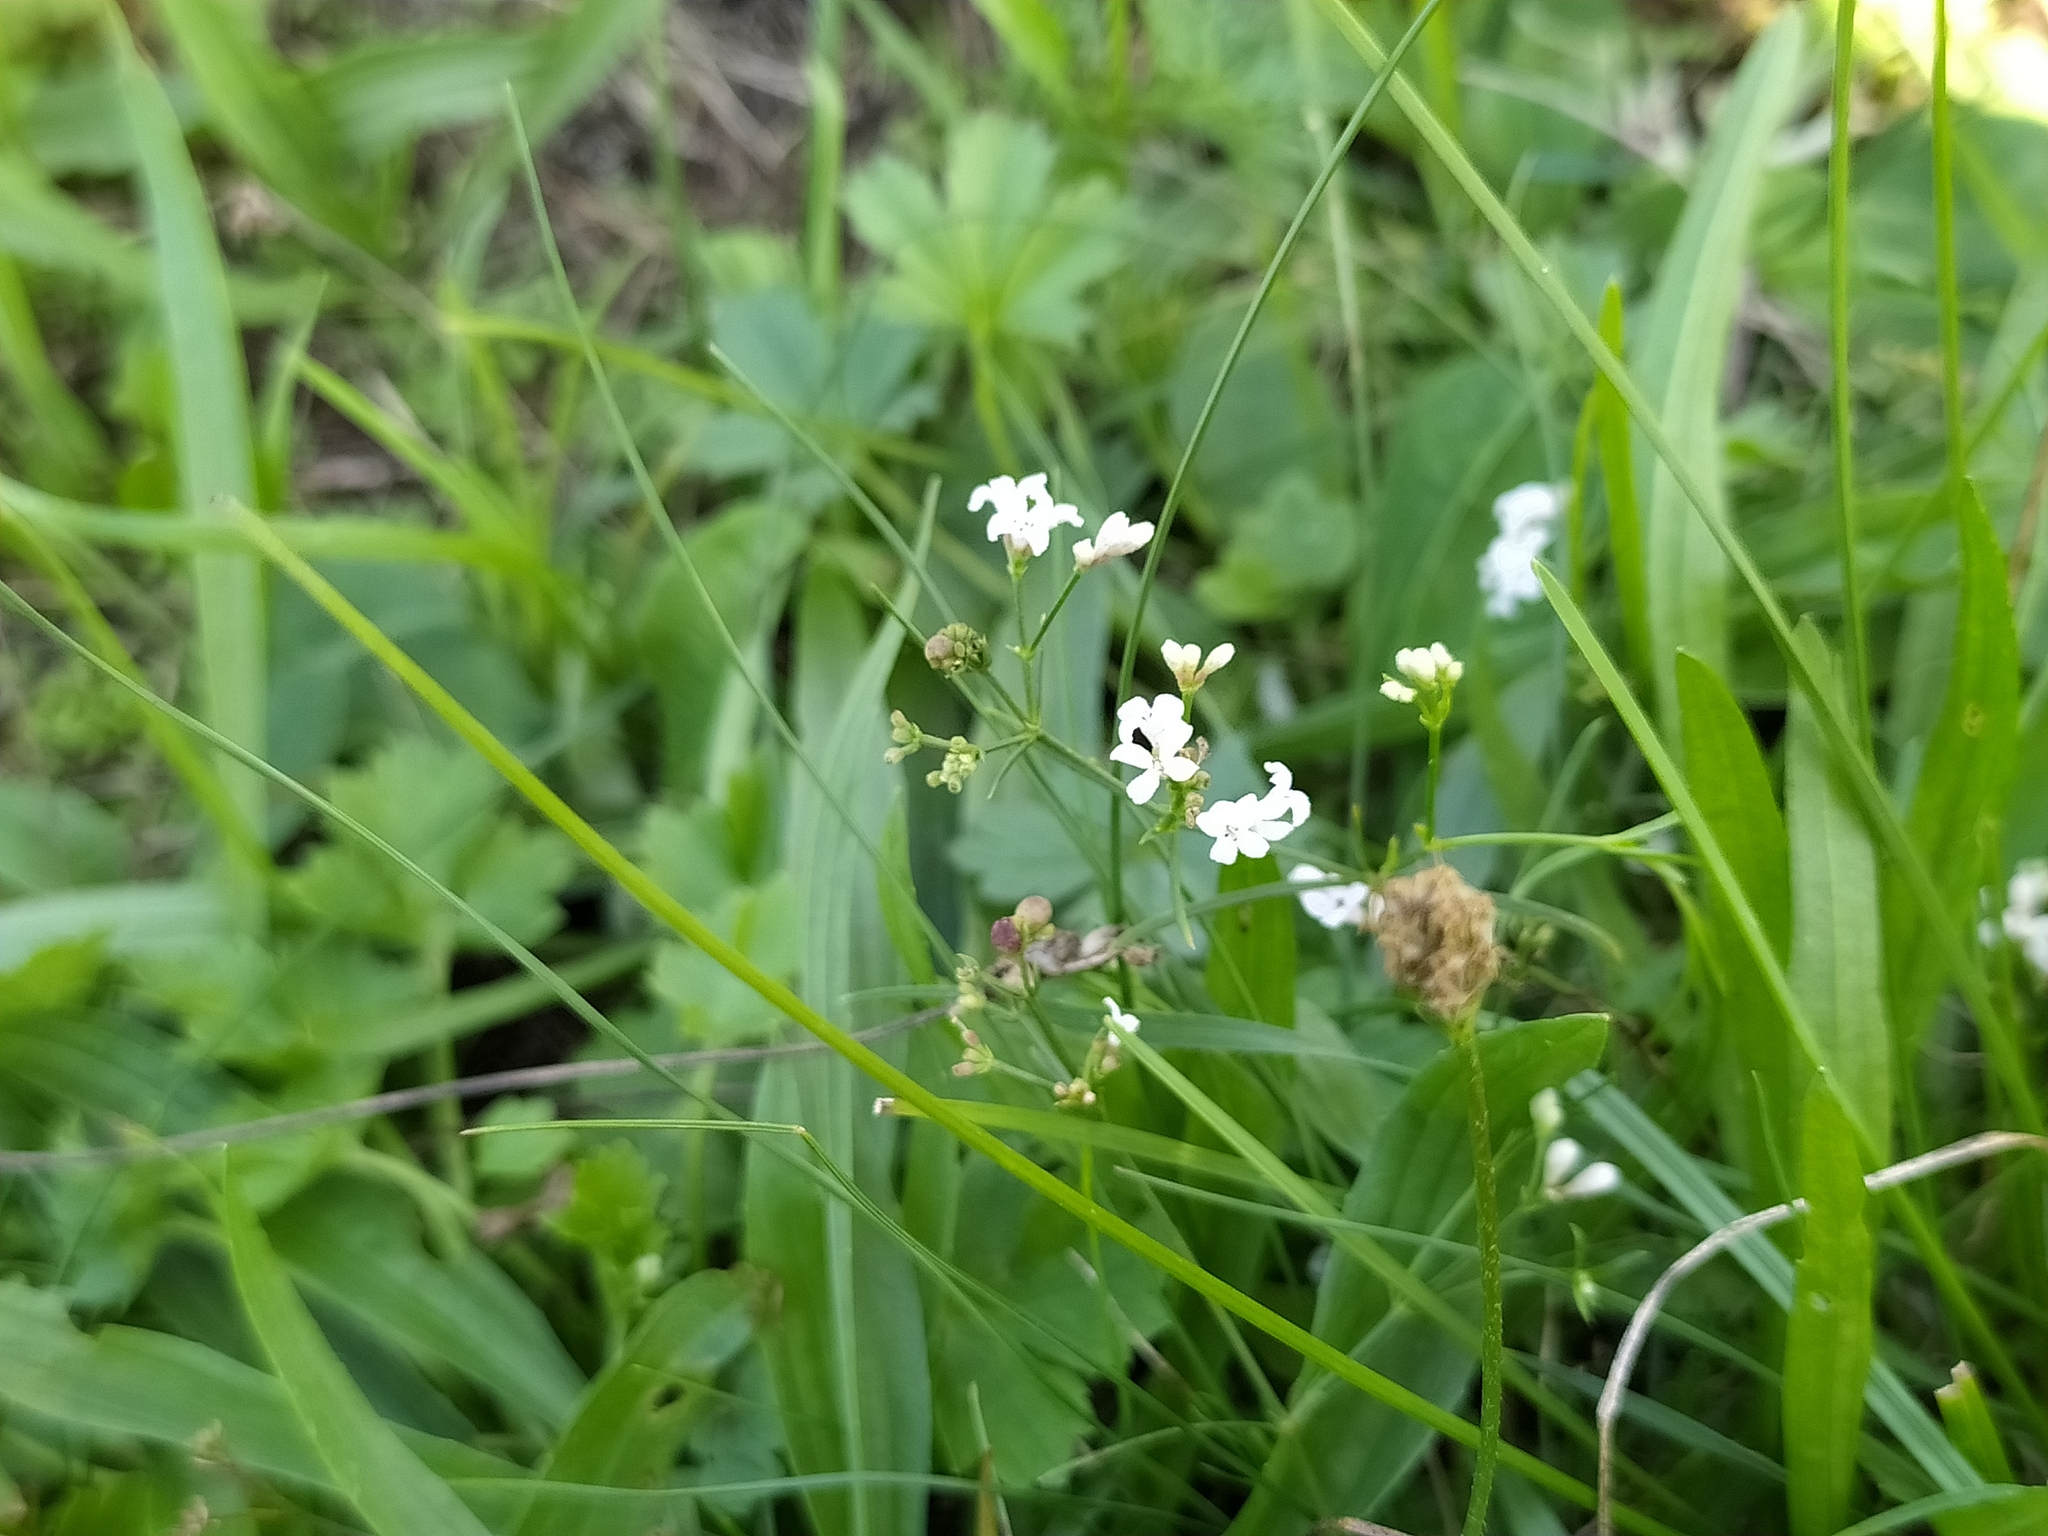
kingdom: Plantae
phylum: Tracheophyta
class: Magnoliopsida
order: Gentianales
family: Rubiaceae
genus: Cynanchica
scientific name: Cynanchica pyrenaica
